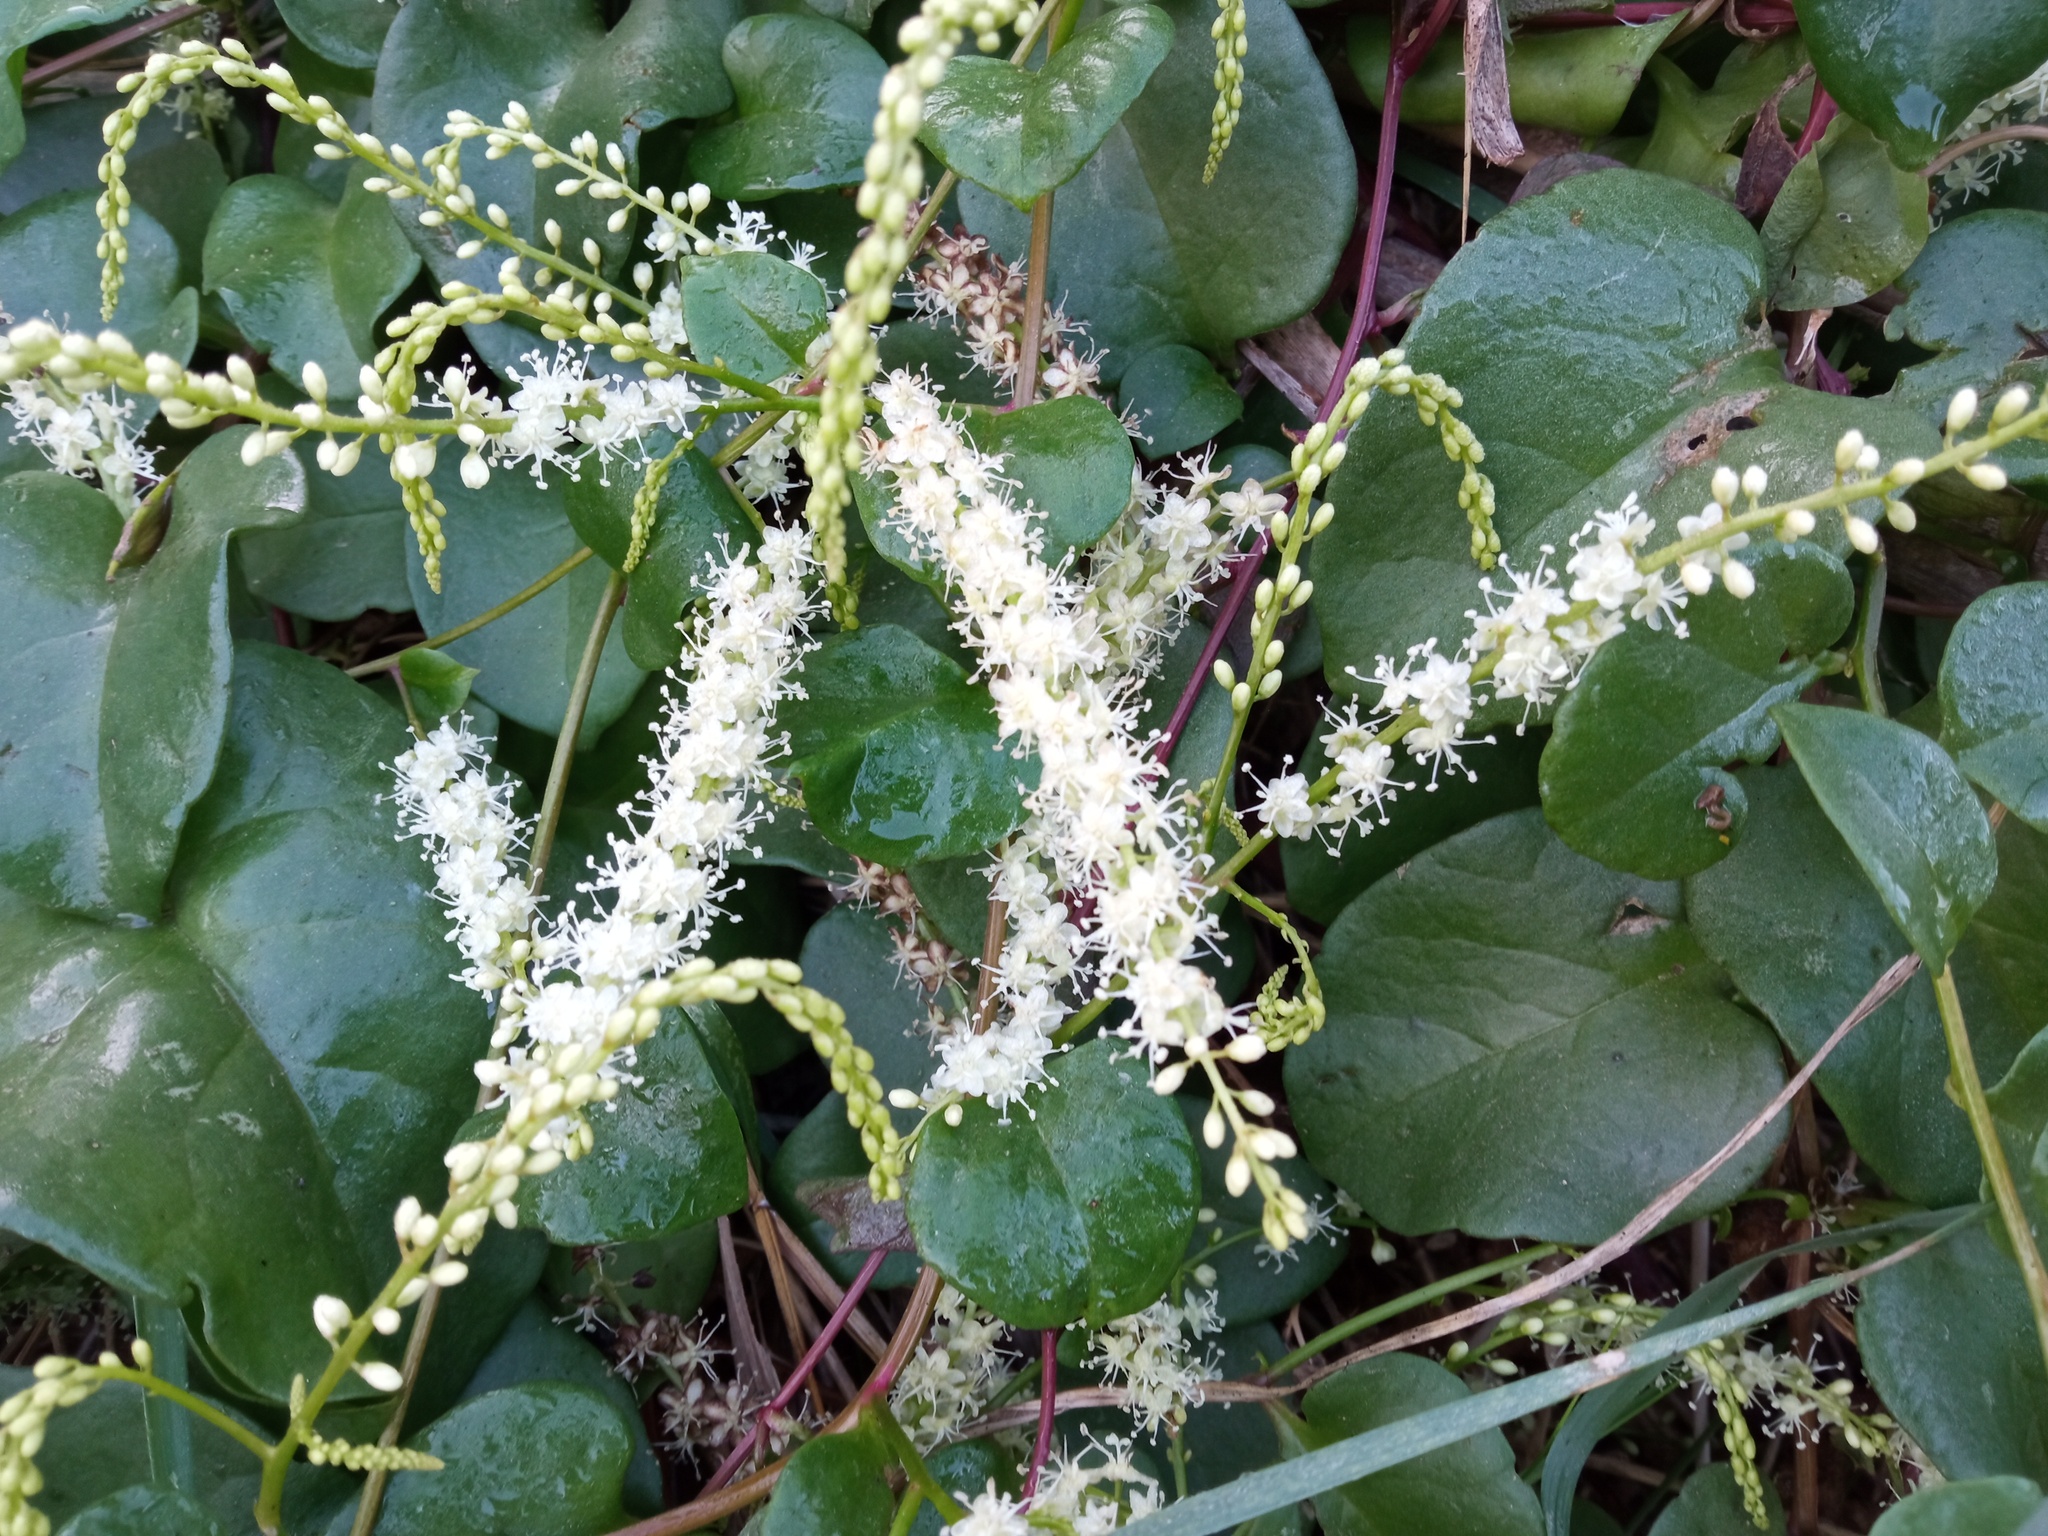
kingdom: Plantae
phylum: Tracheophyta
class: Magnoliopsida
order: Caryophyllales
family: Basellaceae
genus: Anredera
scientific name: Anredera cordifolia
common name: Heartleaf madeiravine
